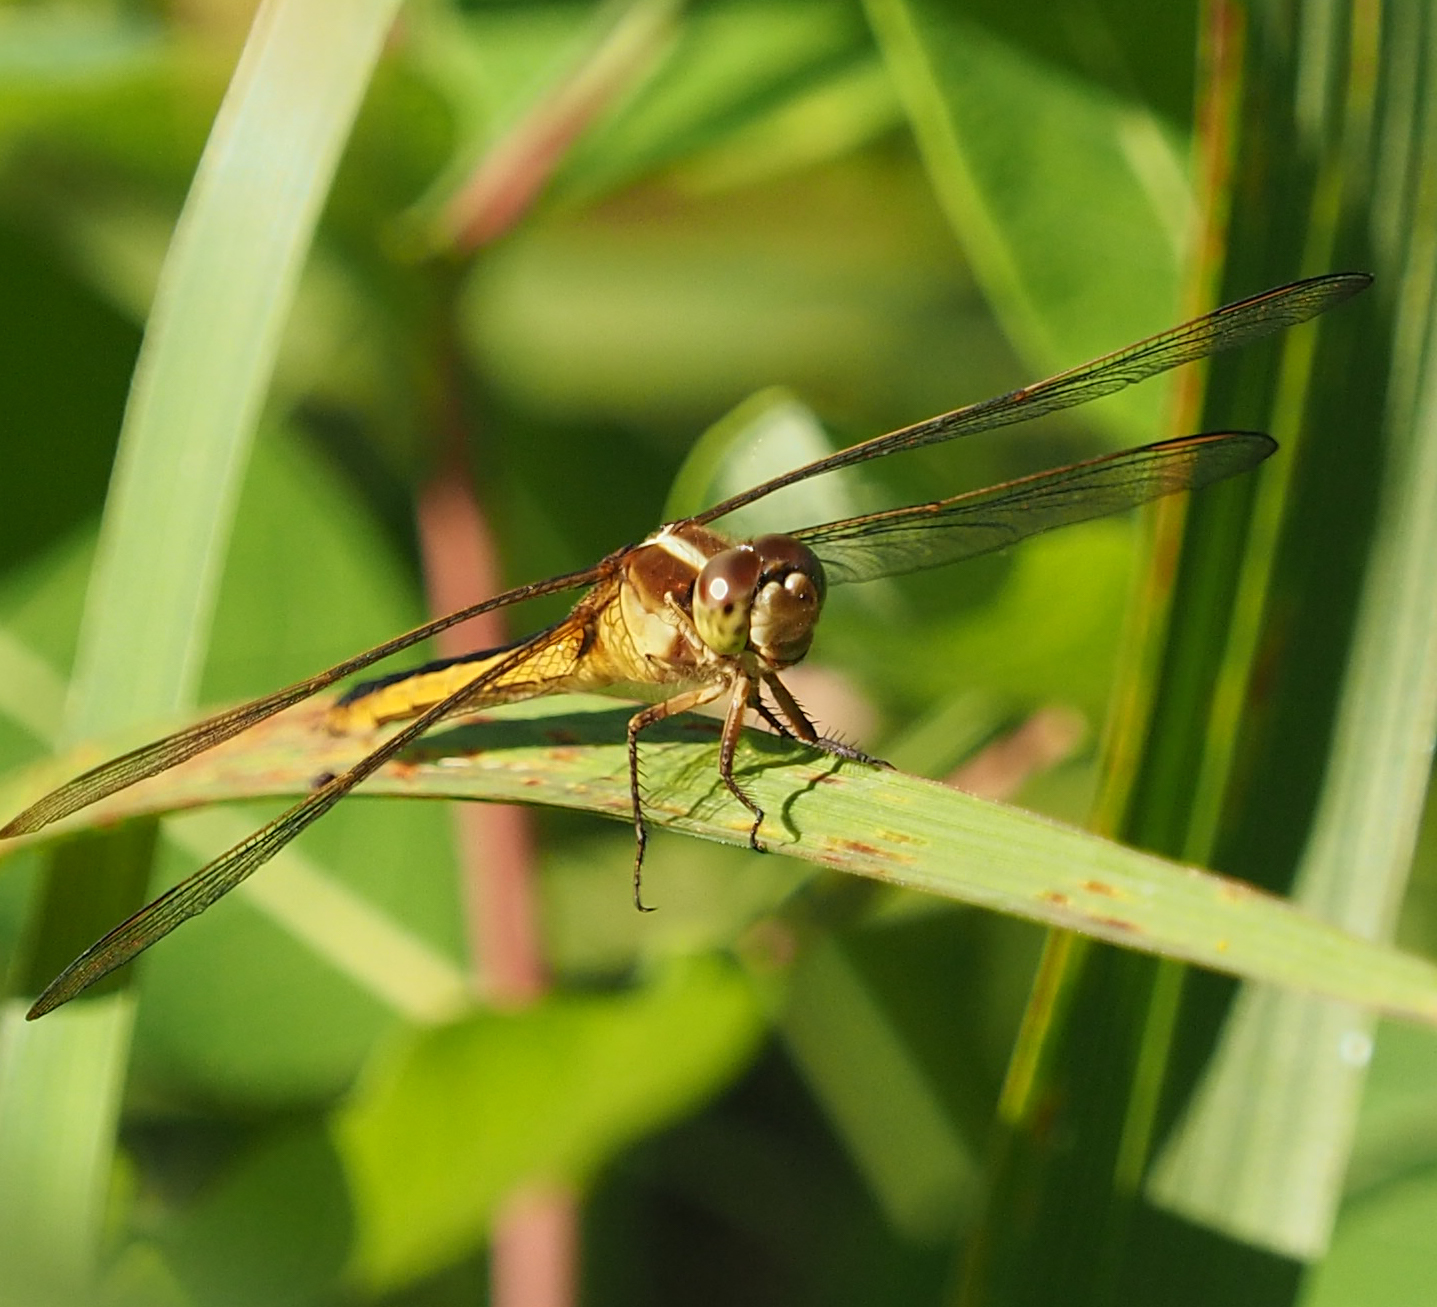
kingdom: Animalia
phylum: Arthropoda
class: Insecta
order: Odonata
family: Libellulidae
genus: Libellula
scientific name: Libellula needhami
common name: Needham's skimmer
